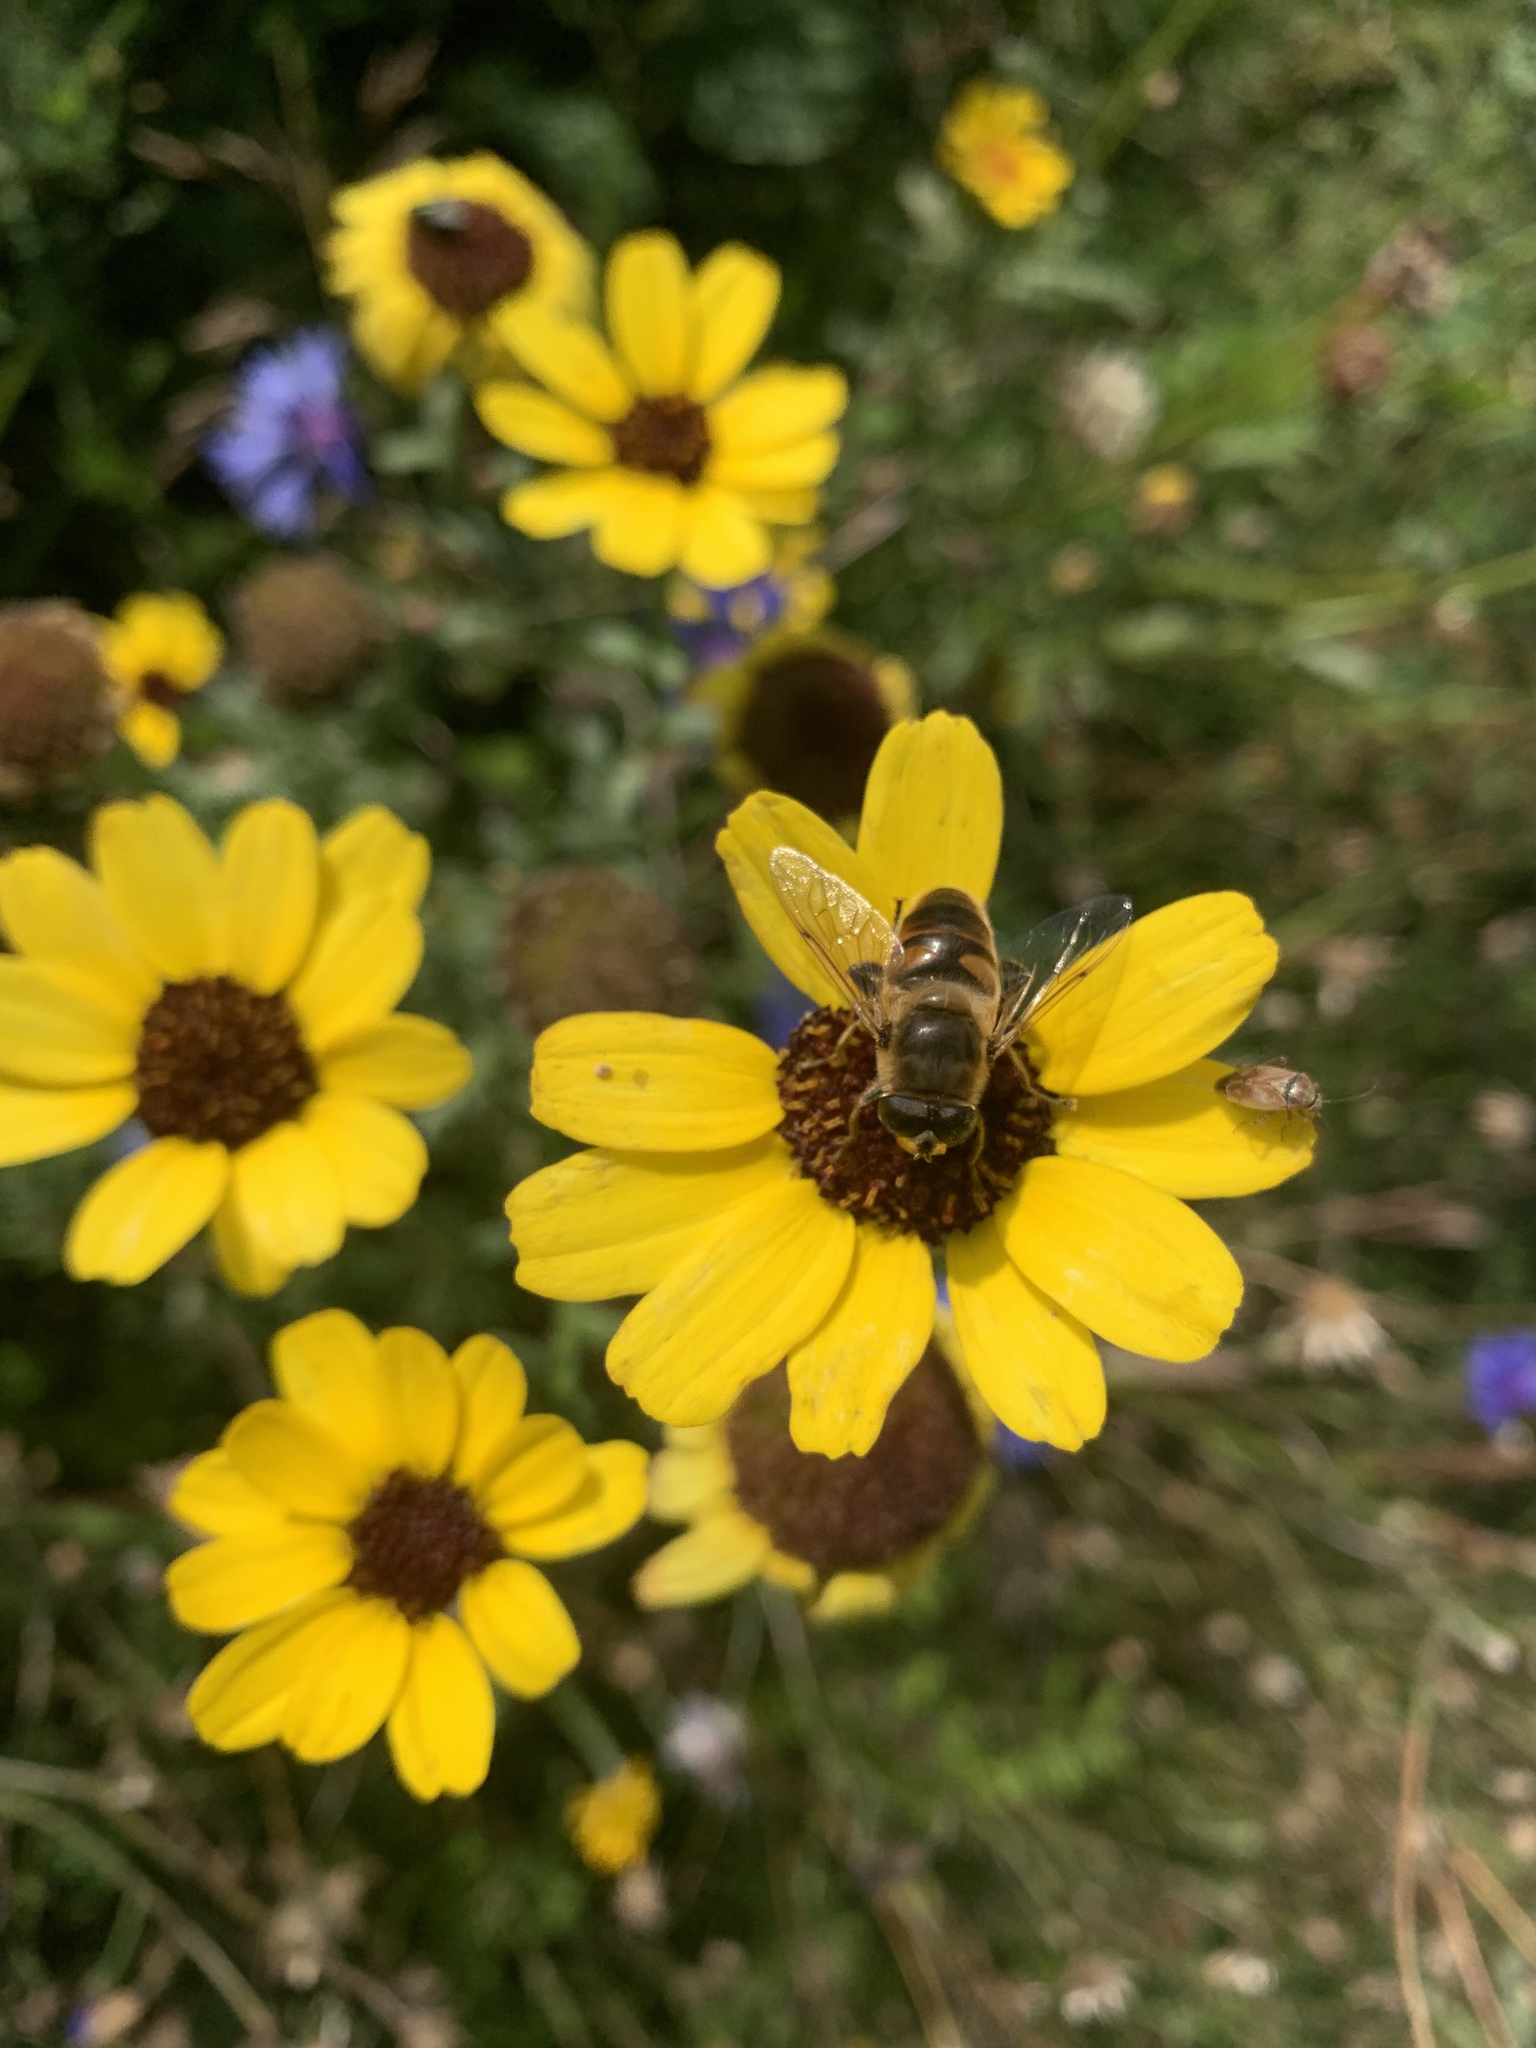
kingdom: Animalia
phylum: Arthropoda
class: Insecta
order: Diptera
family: Syrphidae
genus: Eristalis
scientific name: Eristalis tenax
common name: Drone fly
